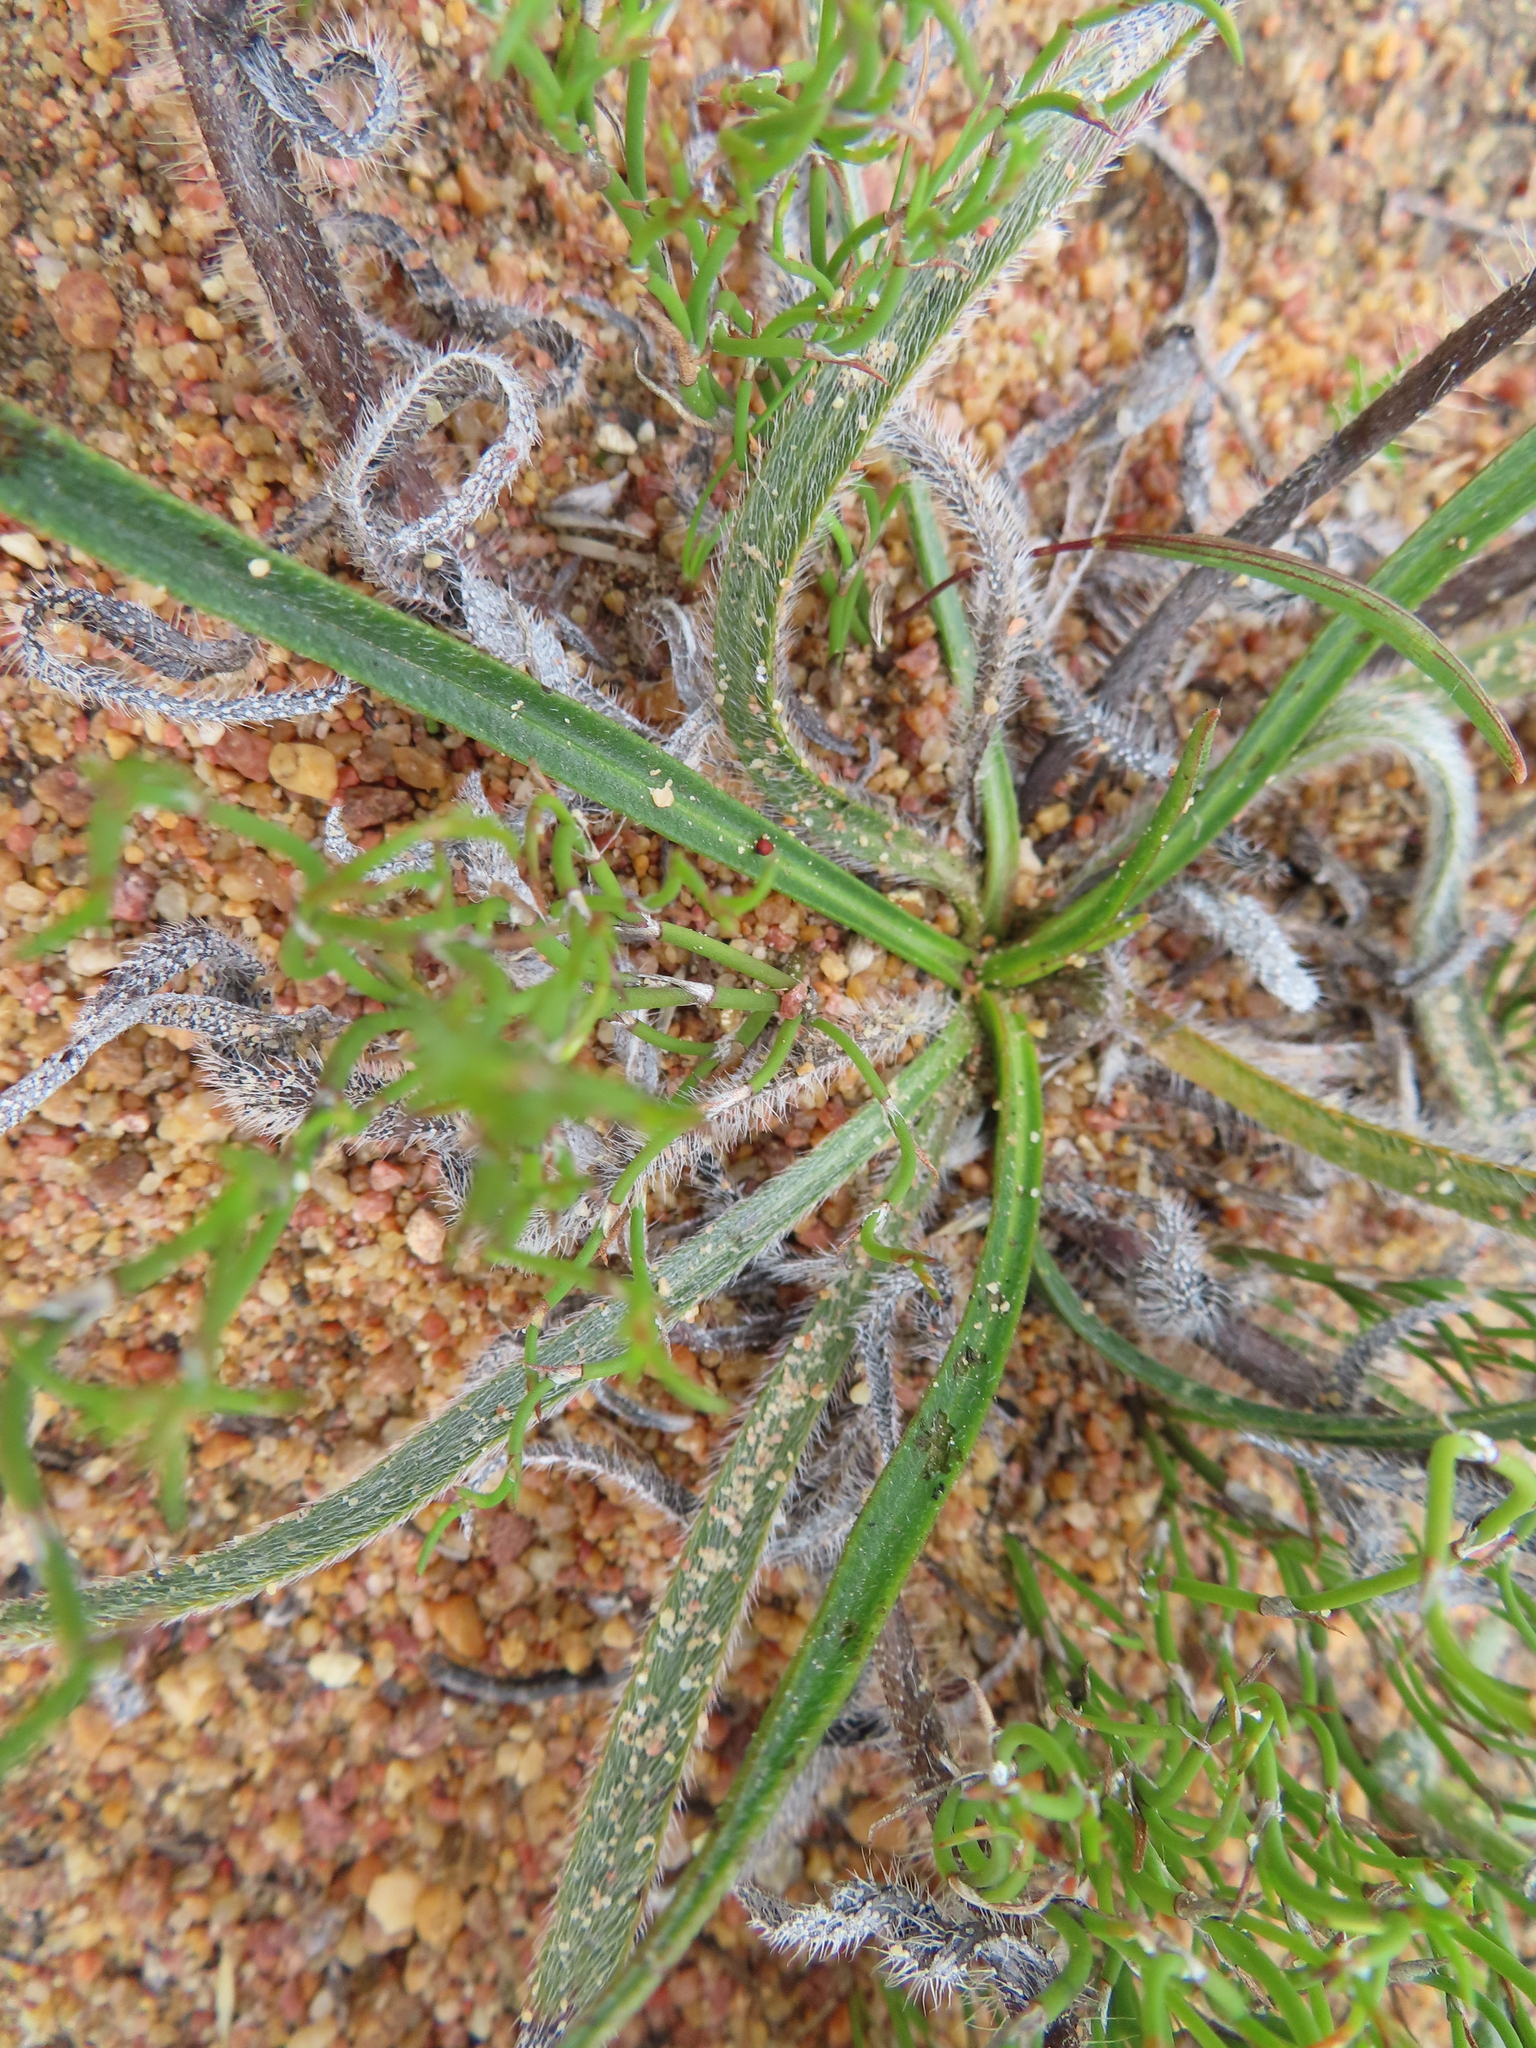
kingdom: Plantae
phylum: Tracheophyta
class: Magnoliopsida
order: Boraginales
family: Boraginaceae
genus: Lobostemon
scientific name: Lobostemon splendens
